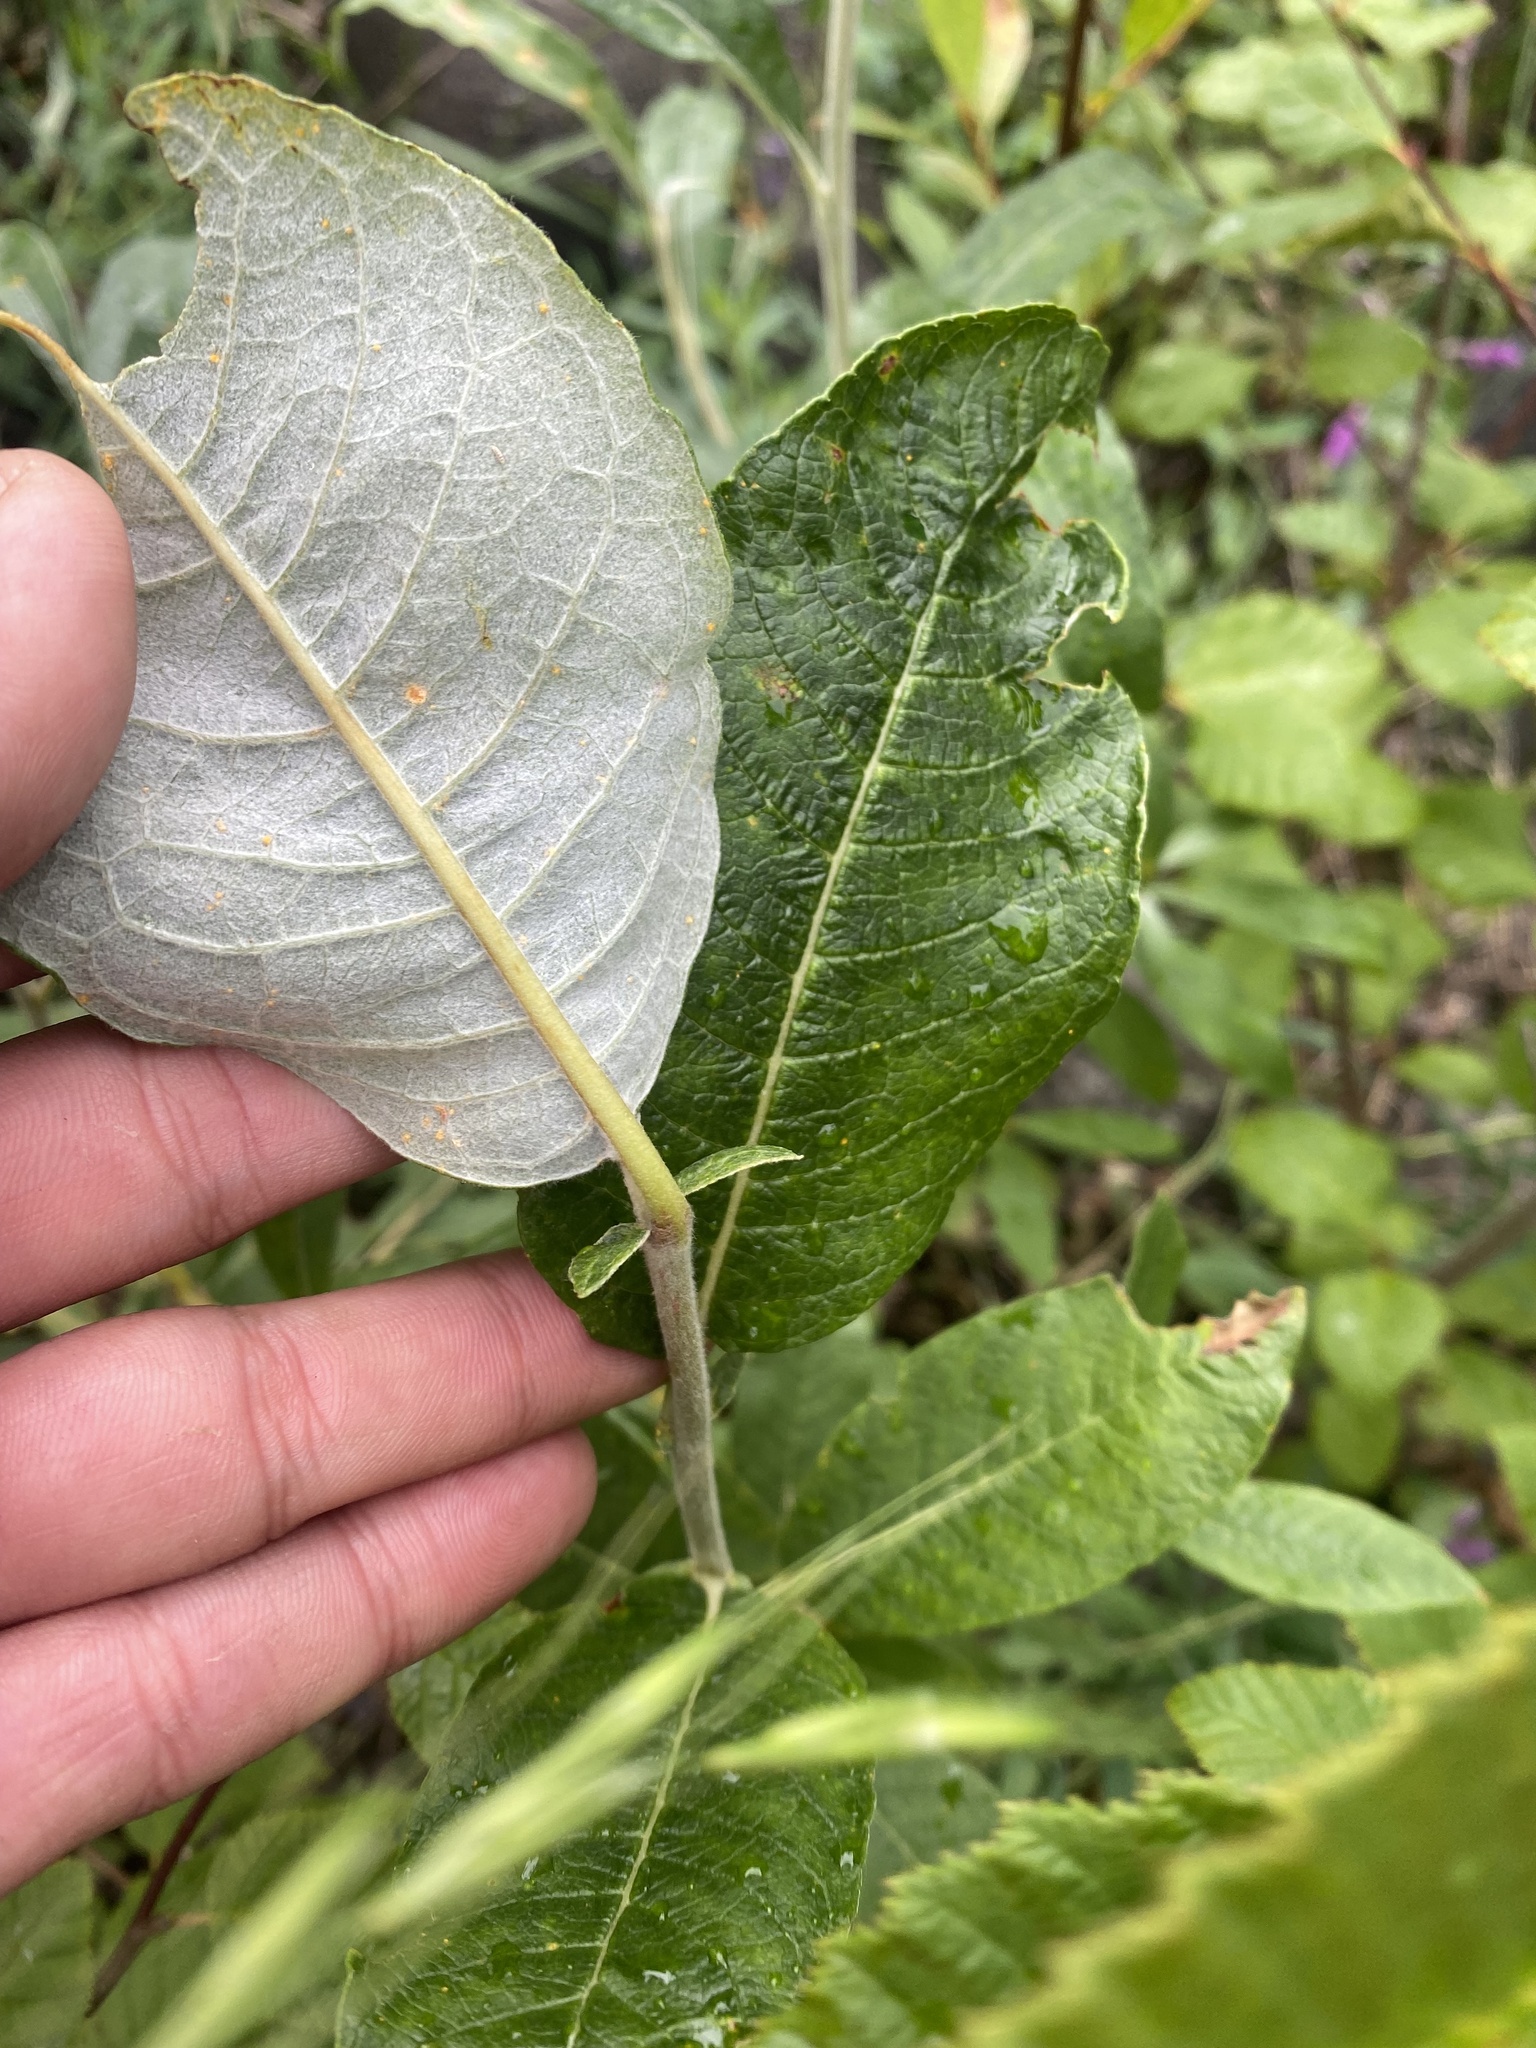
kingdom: Plantae
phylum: Tracheophyta
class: Magnoliopsida
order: Malpighiales
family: Salicaceae
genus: Salix
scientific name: Salix lanata
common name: Woolly willow
